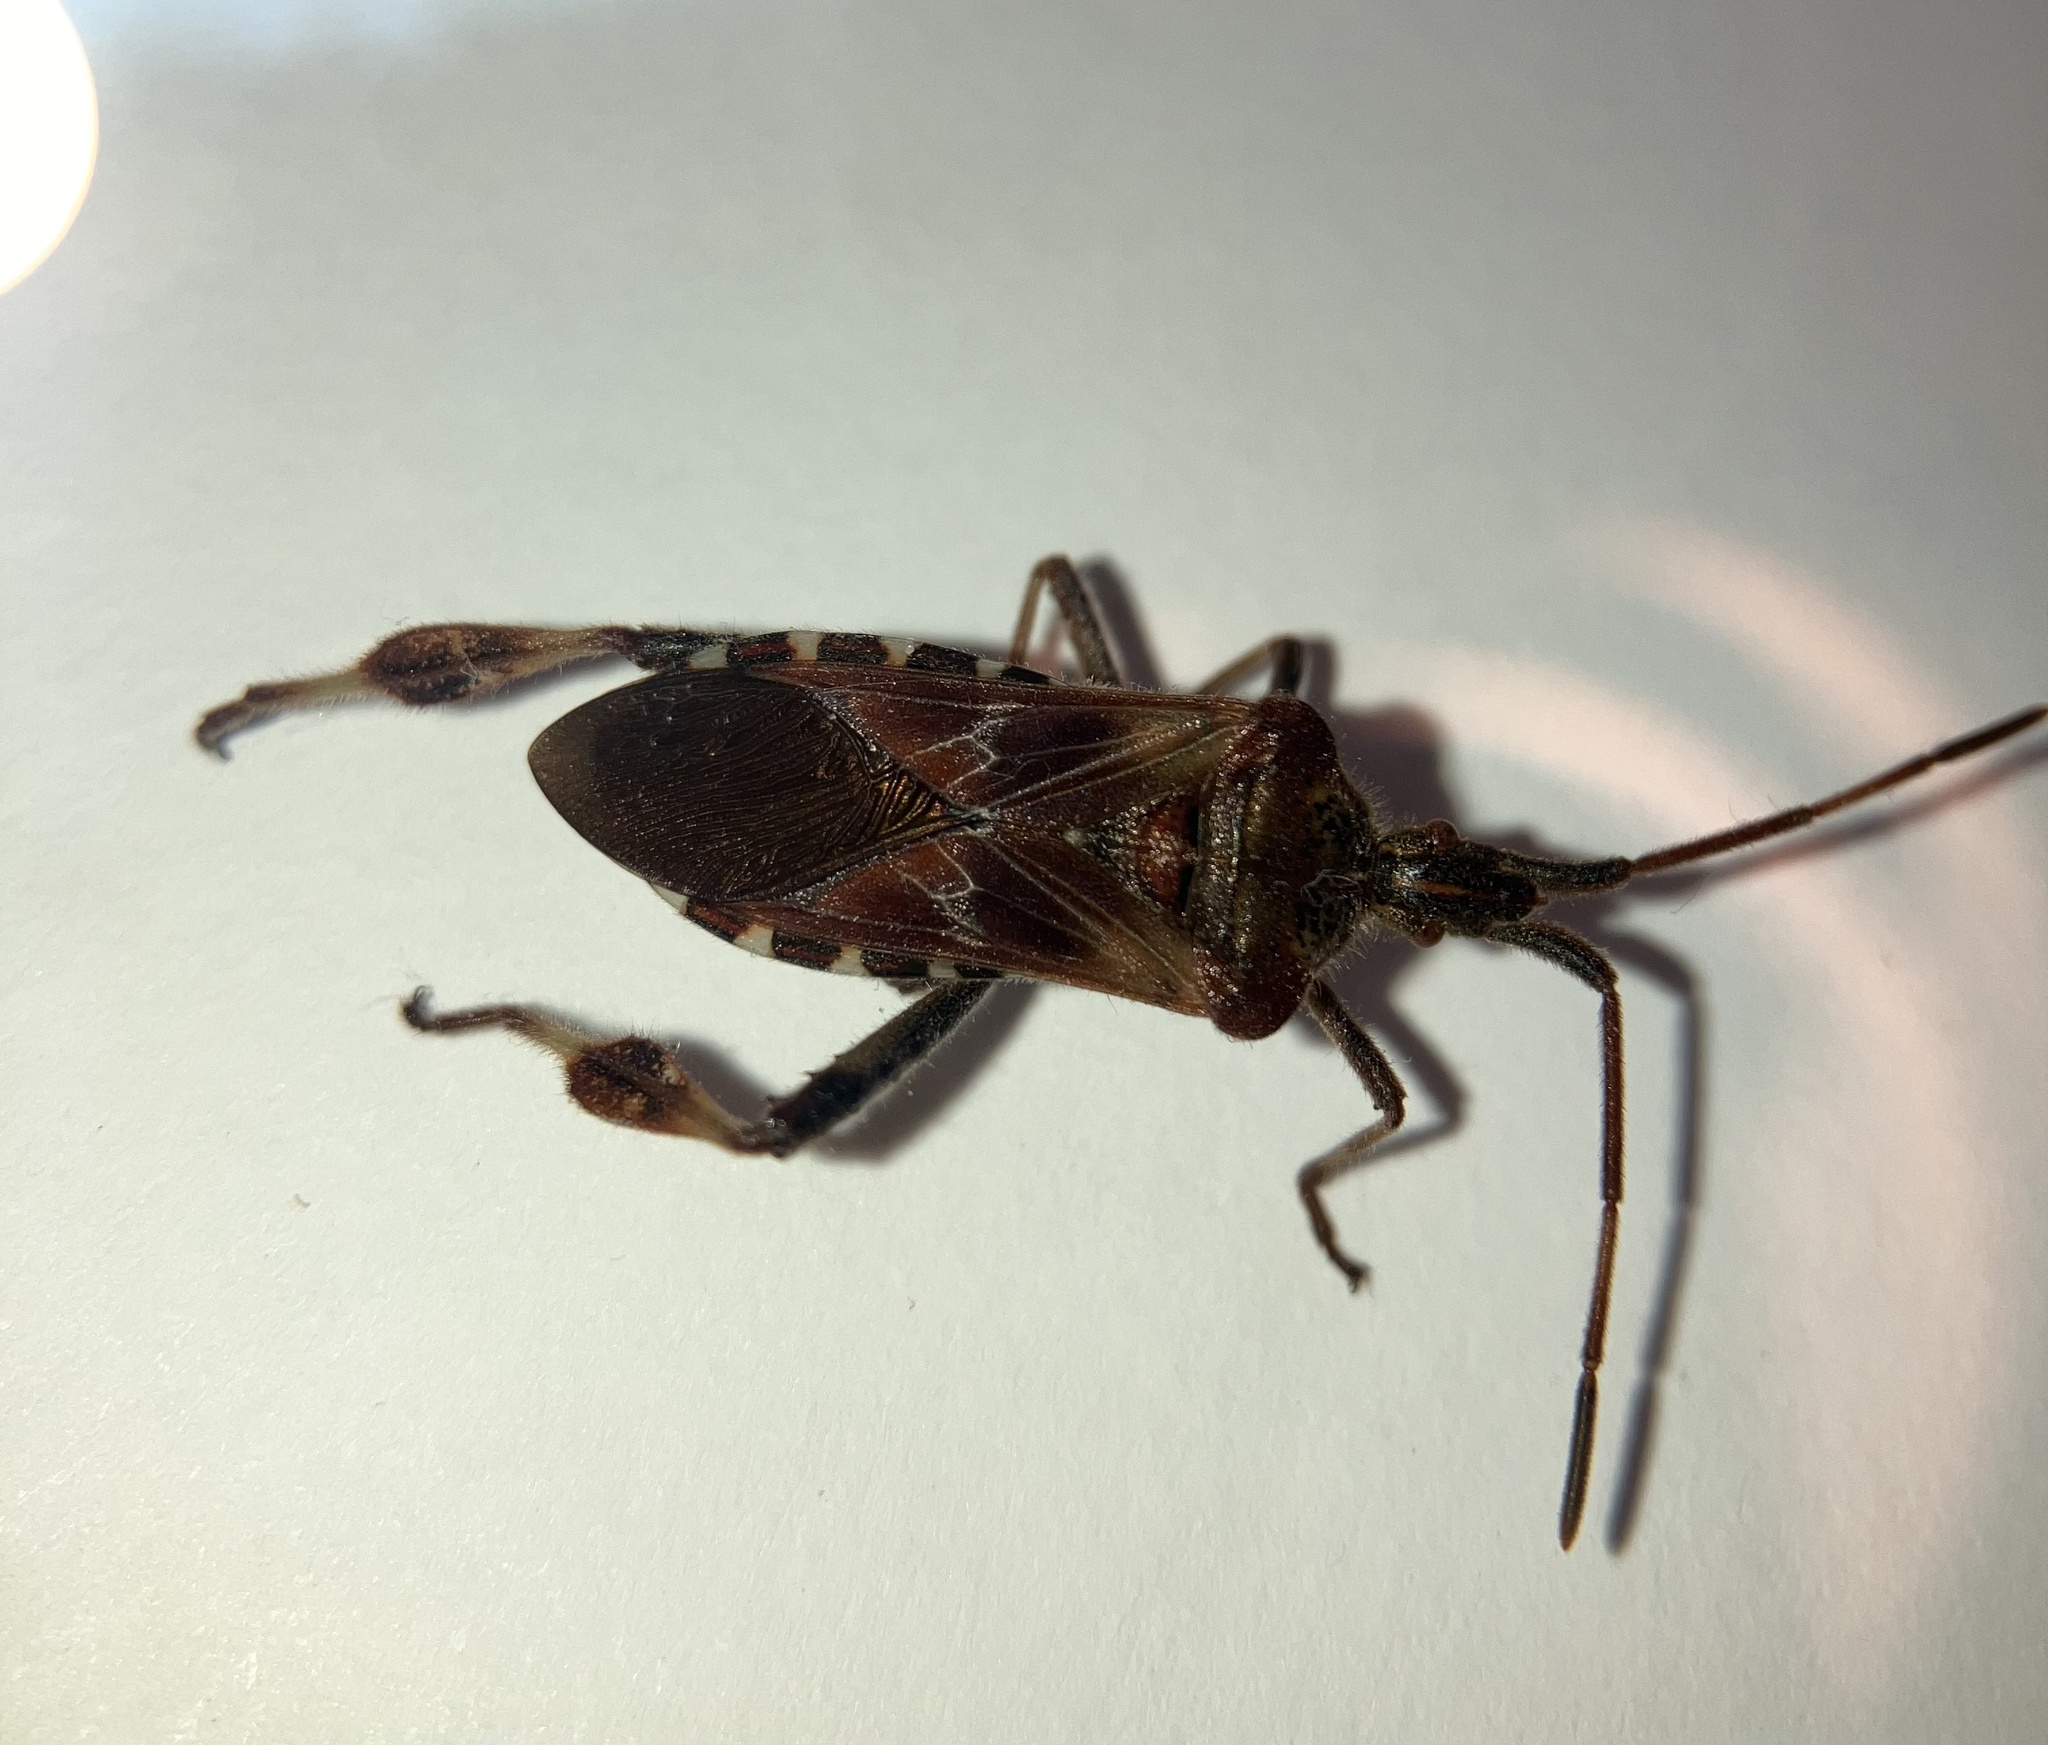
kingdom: Animalia
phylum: Arthropoda
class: Insecta
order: Hemiptera
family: Coreidae
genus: Leptoglossus
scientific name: Leptoglossus occidentalis
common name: Western conifer-seed bug
